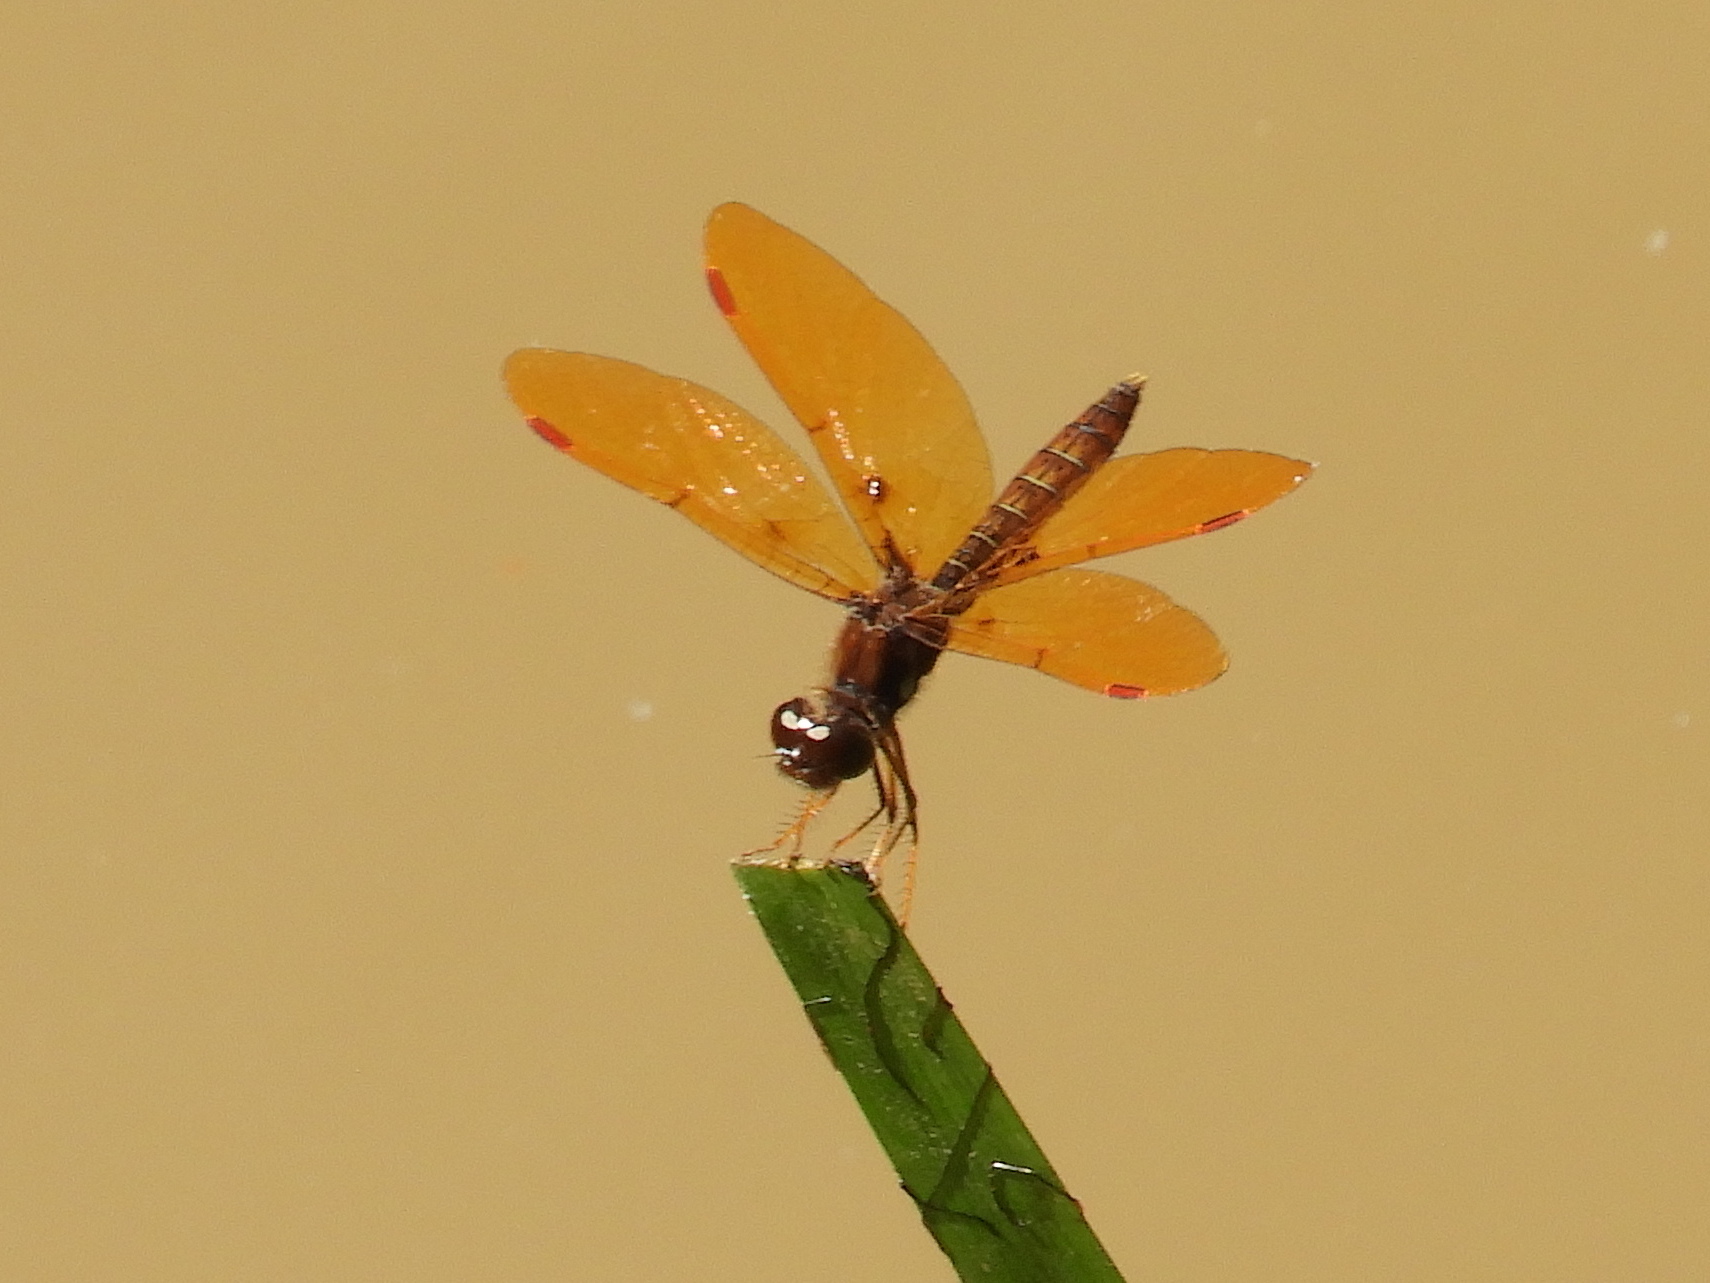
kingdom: Animalia
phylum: Arthropoda
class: Insecta
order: Odonata
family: Libellulidae
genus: Perithemis
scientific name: Perithemis tenera
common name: Eastern amberwing
